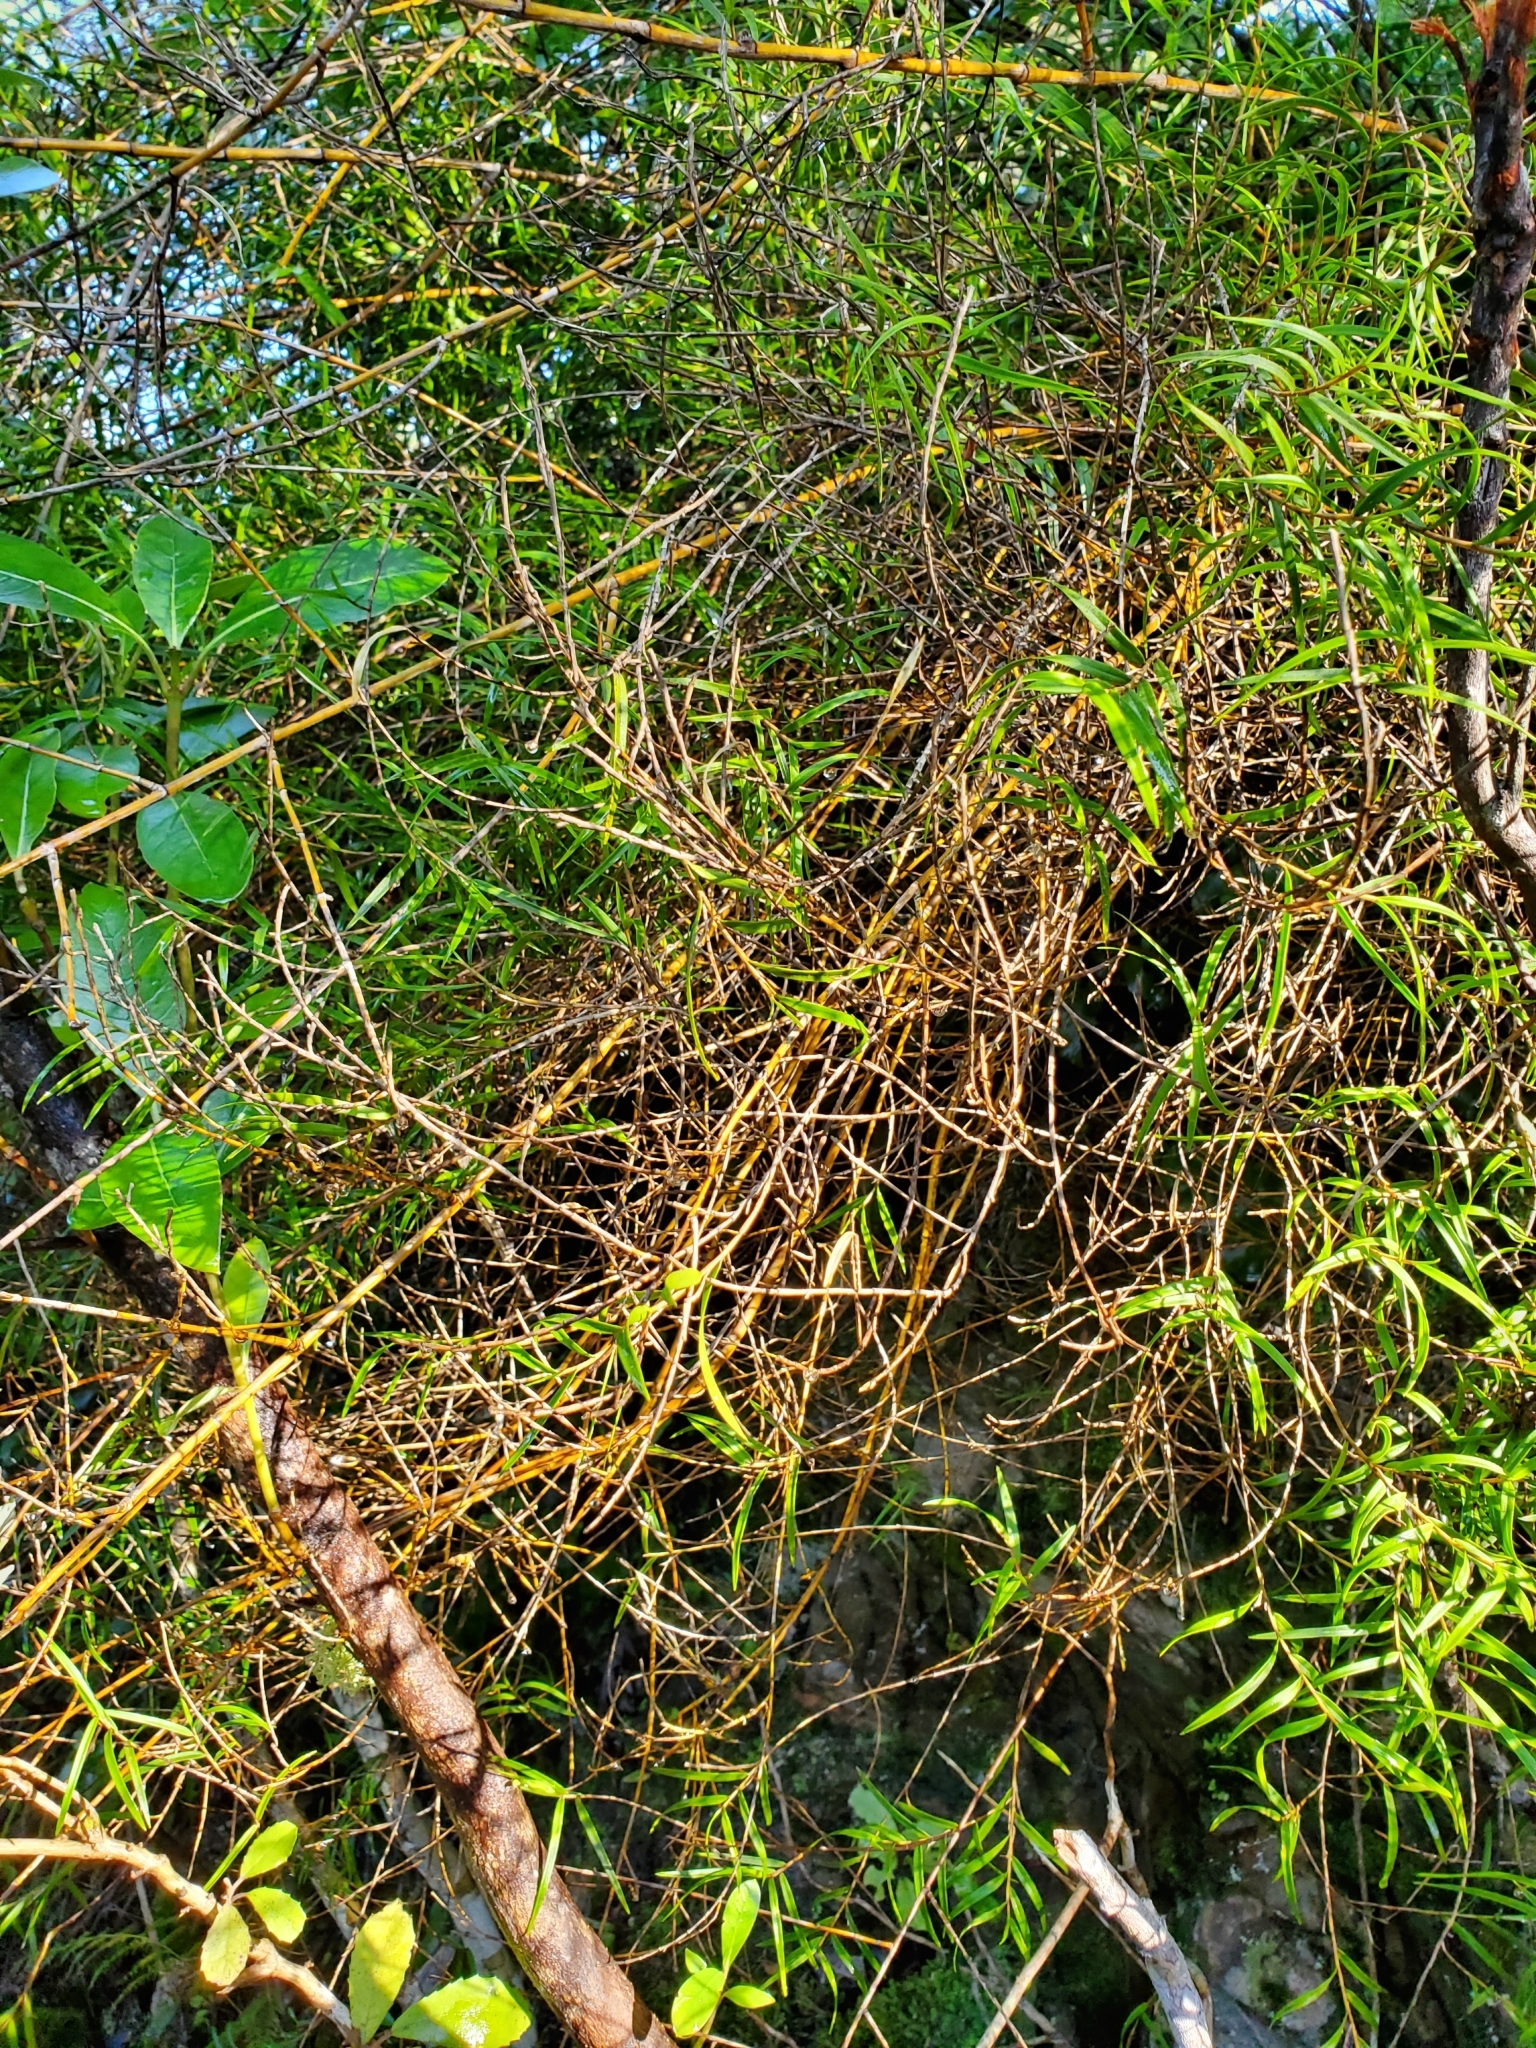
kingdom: Plantae
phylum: Tracheophyta
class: Liliopsida
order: Asparagales
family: Orchidaceae
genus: Dendrobium
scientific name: Dendrobium cunninghamii
